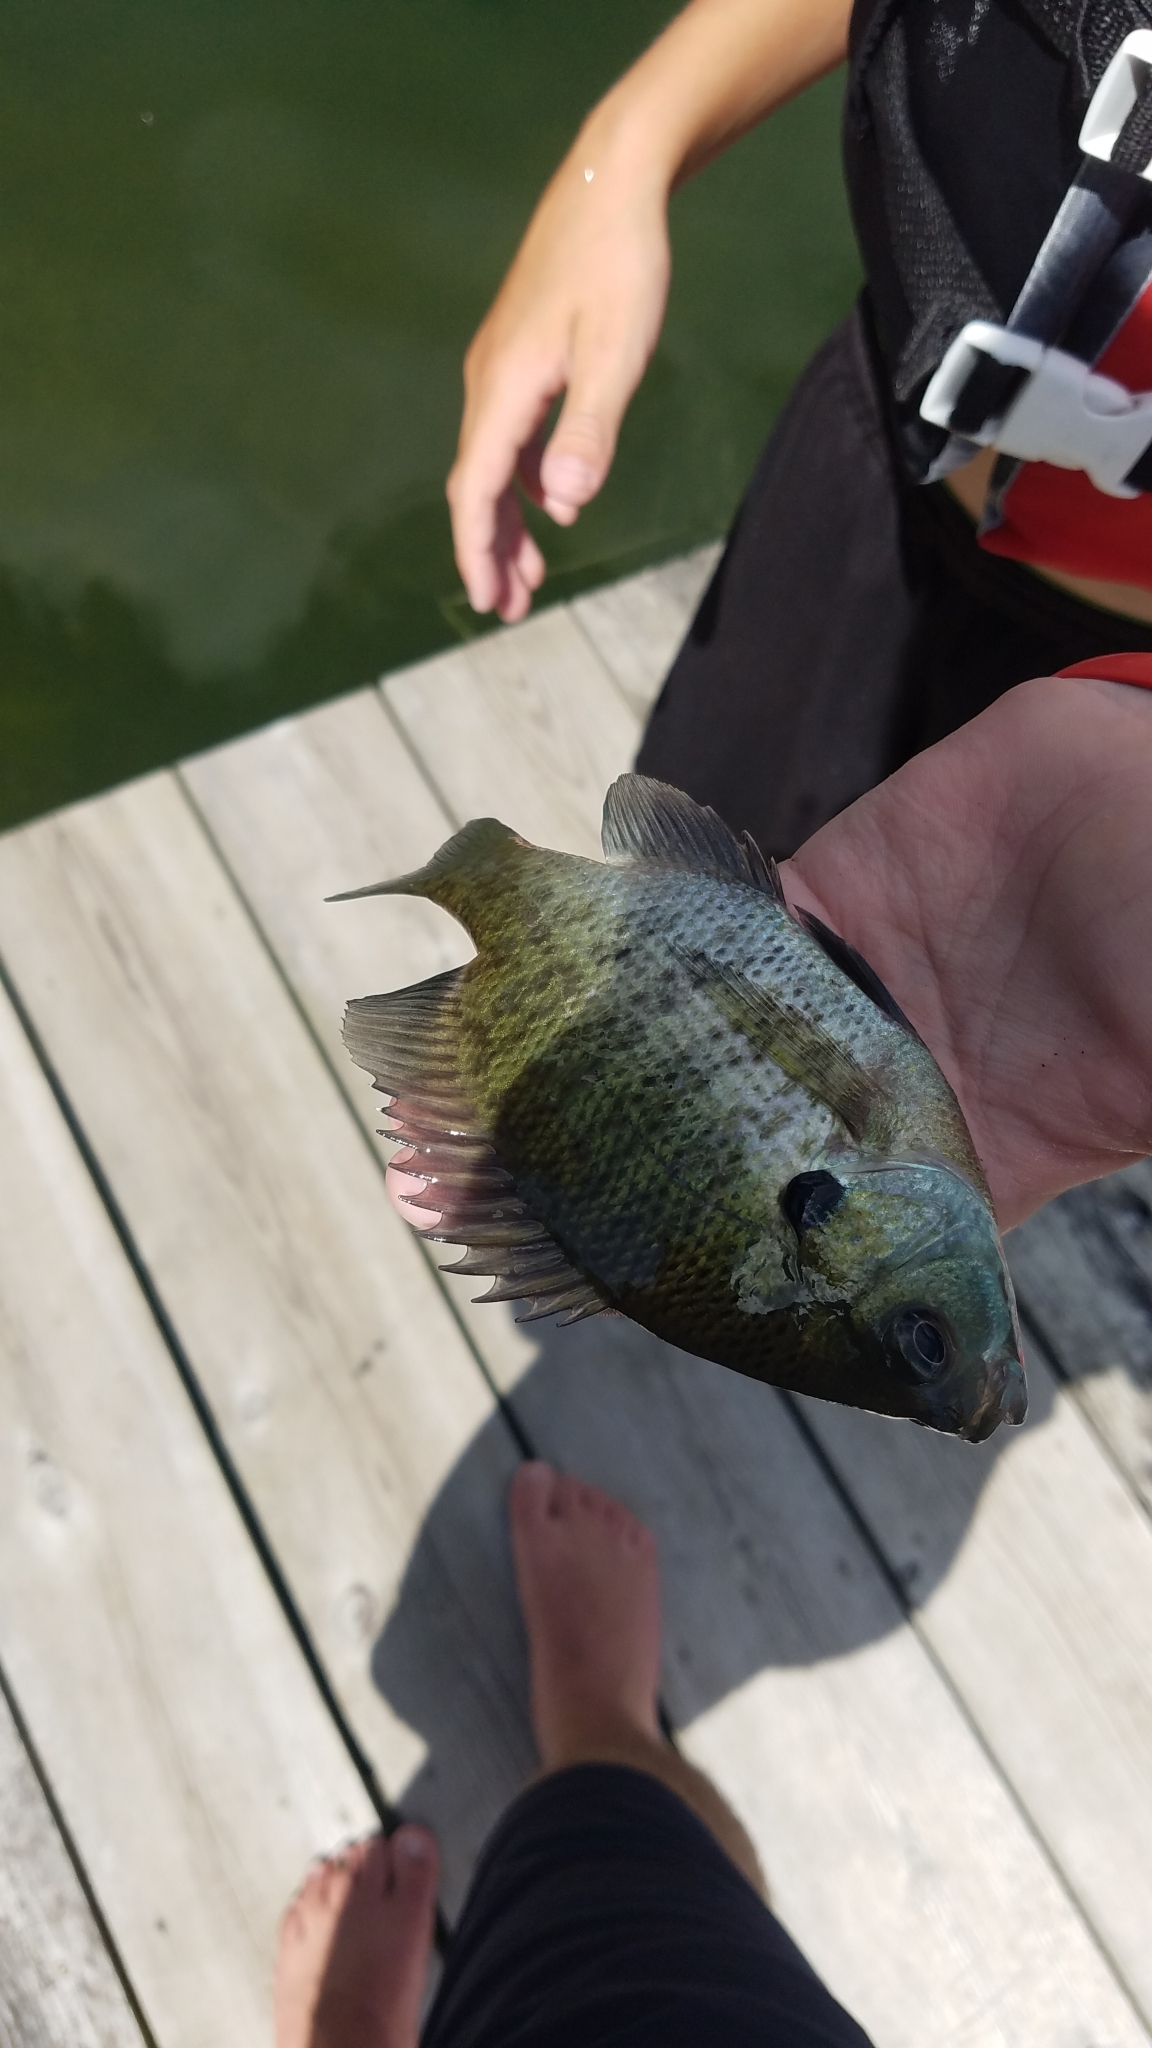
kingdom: Animalia
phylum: Chordata
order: Perciformes
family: Centrarchidae
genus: Lepomis
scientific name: Lepomis macrochirus
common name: Bluegill
